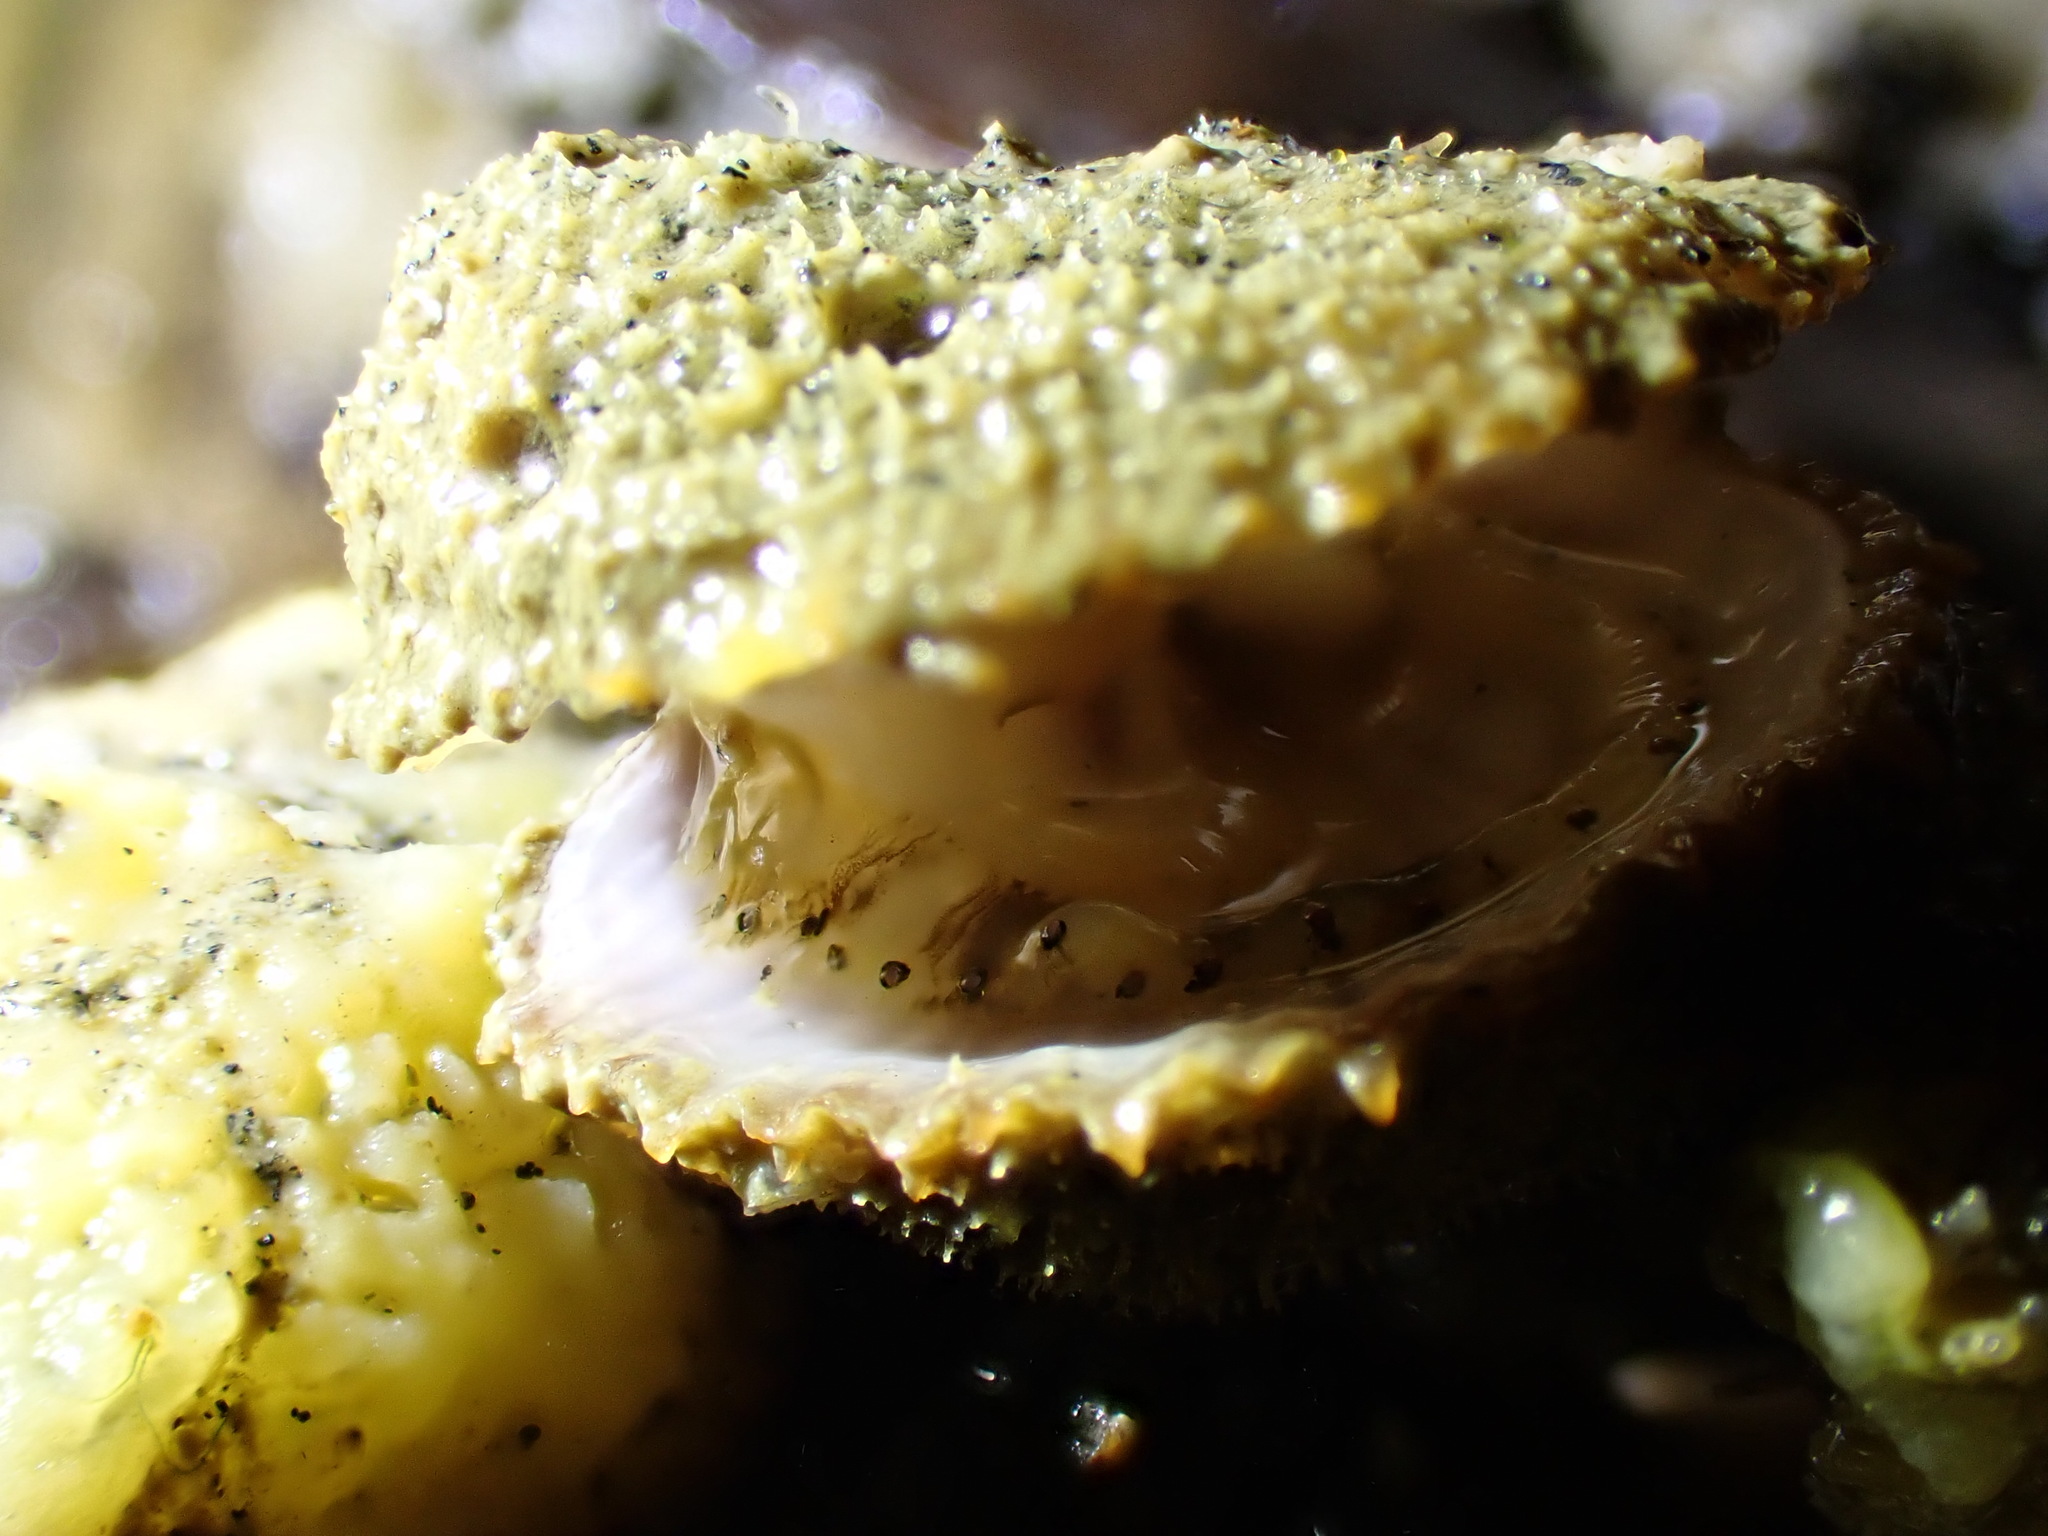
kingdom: Animalia
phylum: Mollusca
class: Bivalvia
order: Pectinida
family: Pectinidae
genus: Talochlamys
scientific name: Talochlamys zelandiae
